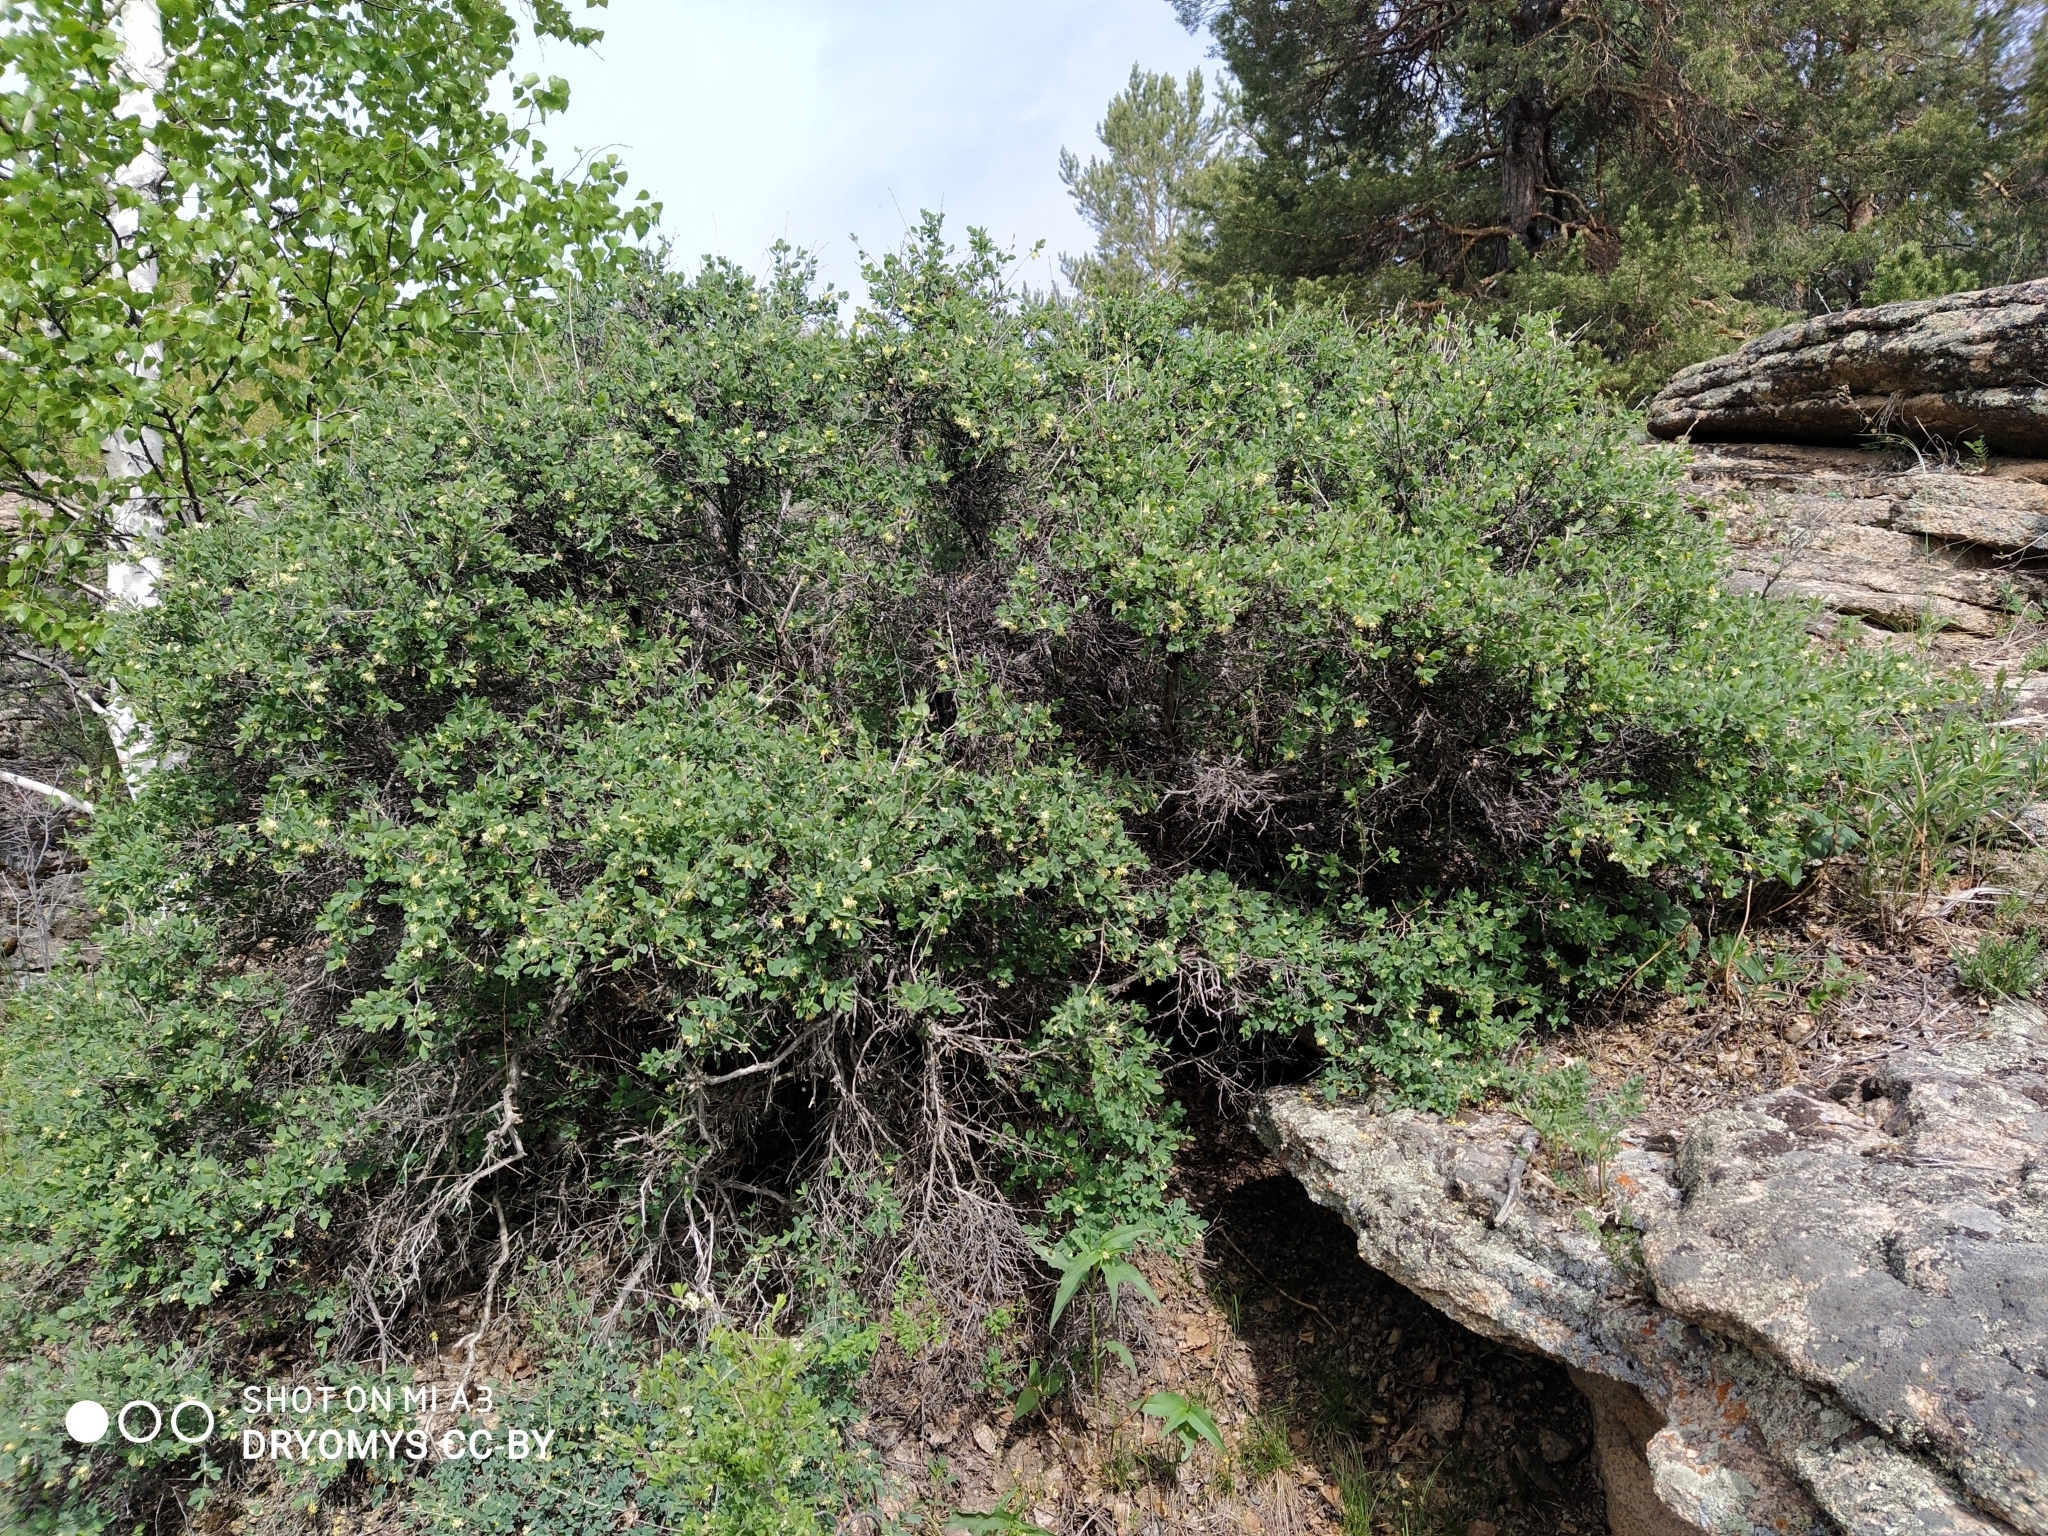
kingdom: Plantae
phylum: Tracheophyta
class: Magnoliopsida
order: Dipsacales
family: Caprifoliaceae
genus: Lonicera
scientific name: Lonicera microphylla
